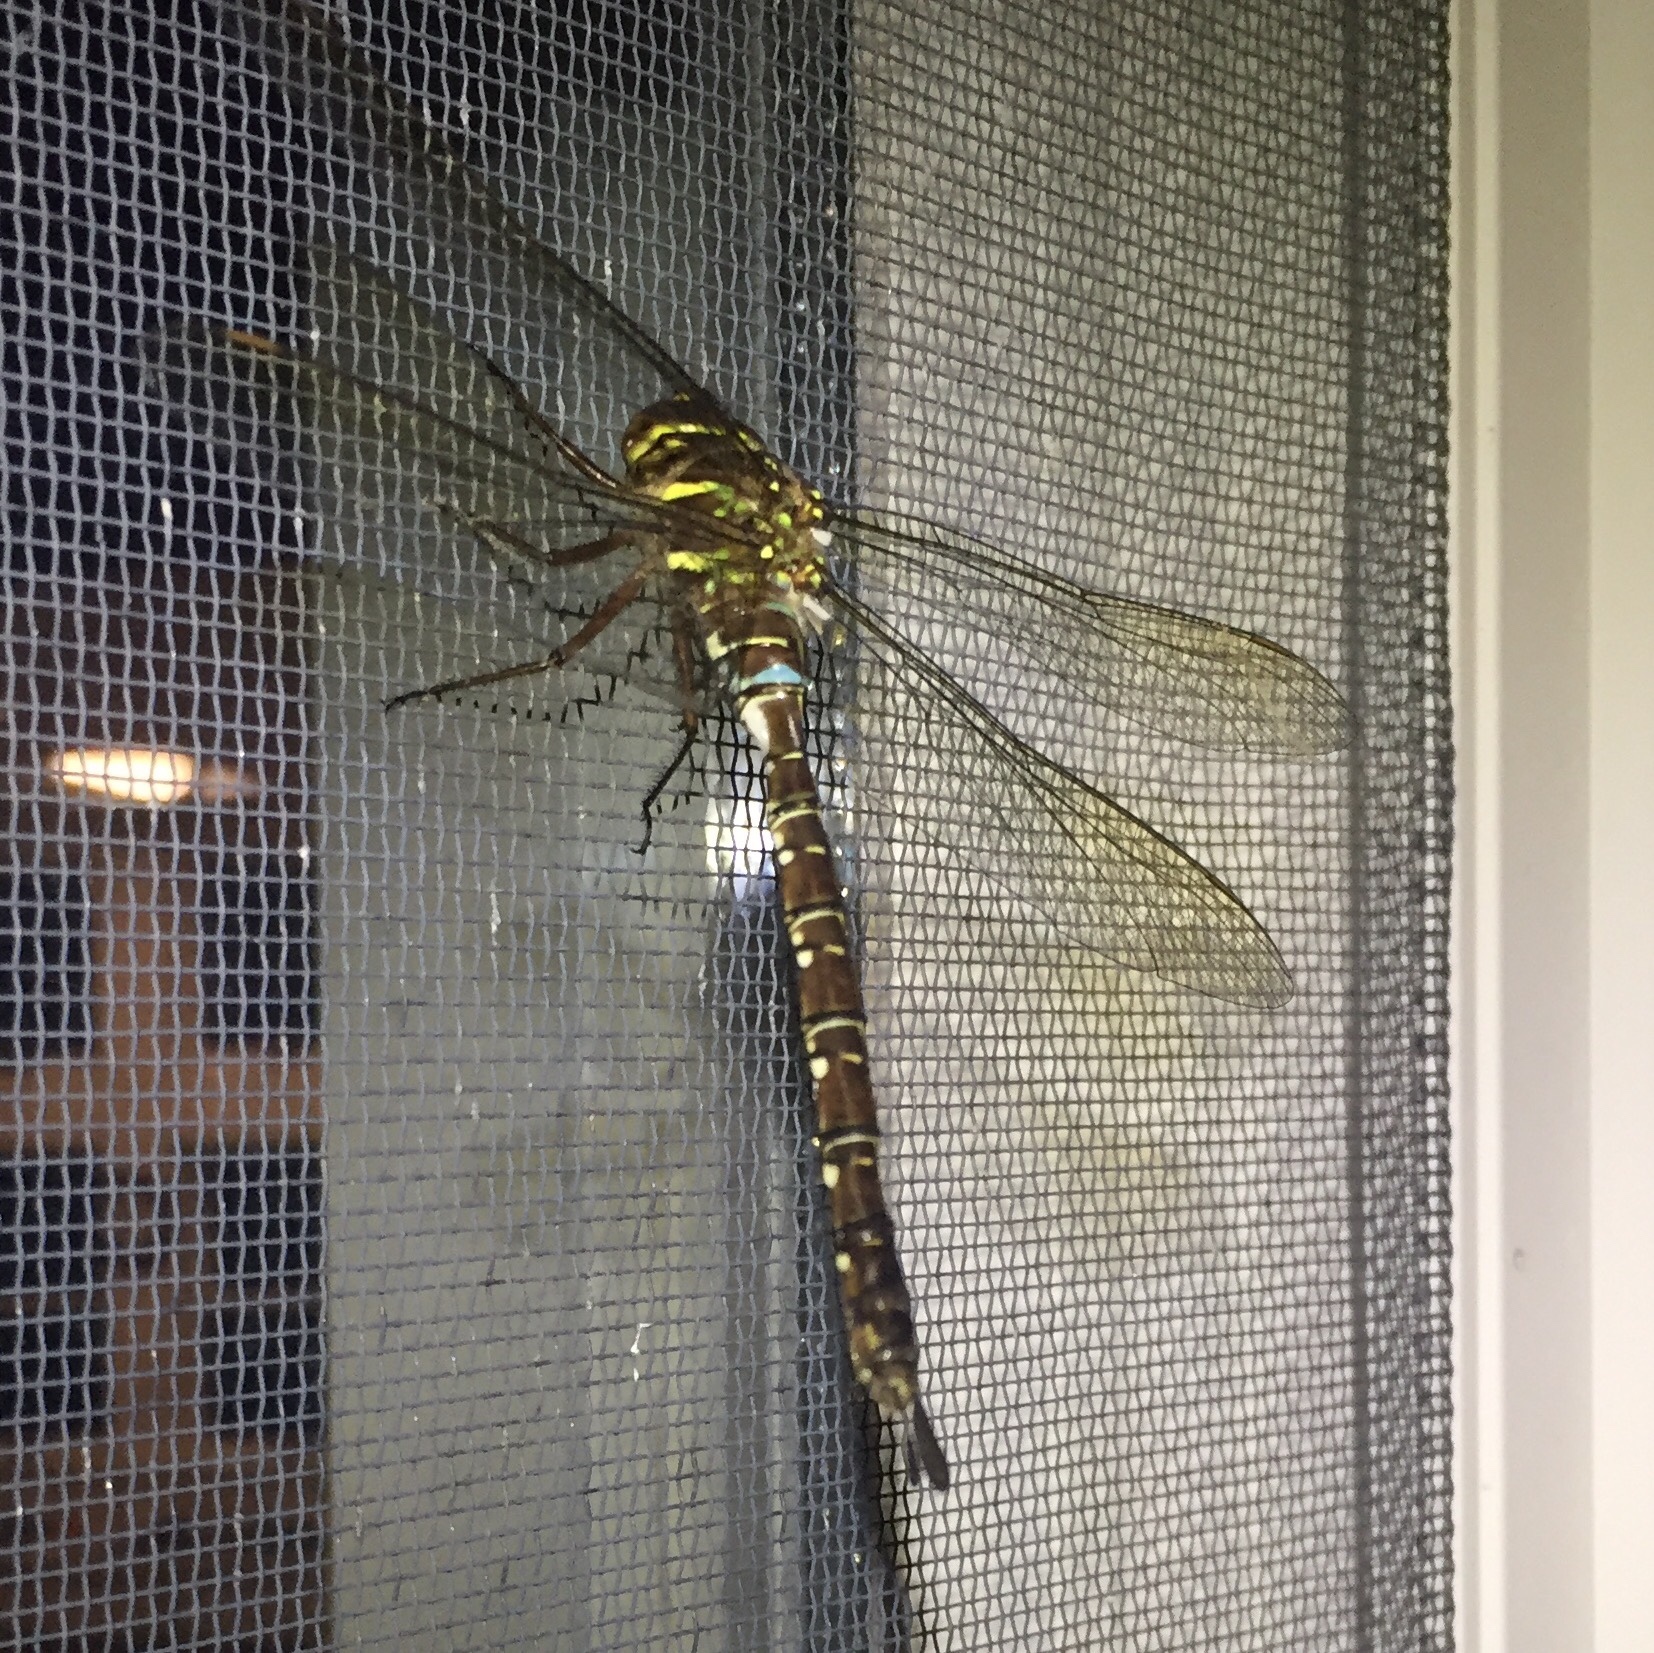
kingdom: Animalia
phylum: Arthropoda
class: Insecta
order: Odonata
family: Aeshnidae
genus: Aeshna
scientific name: Aeshna umbrosa
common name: Shadow darner
